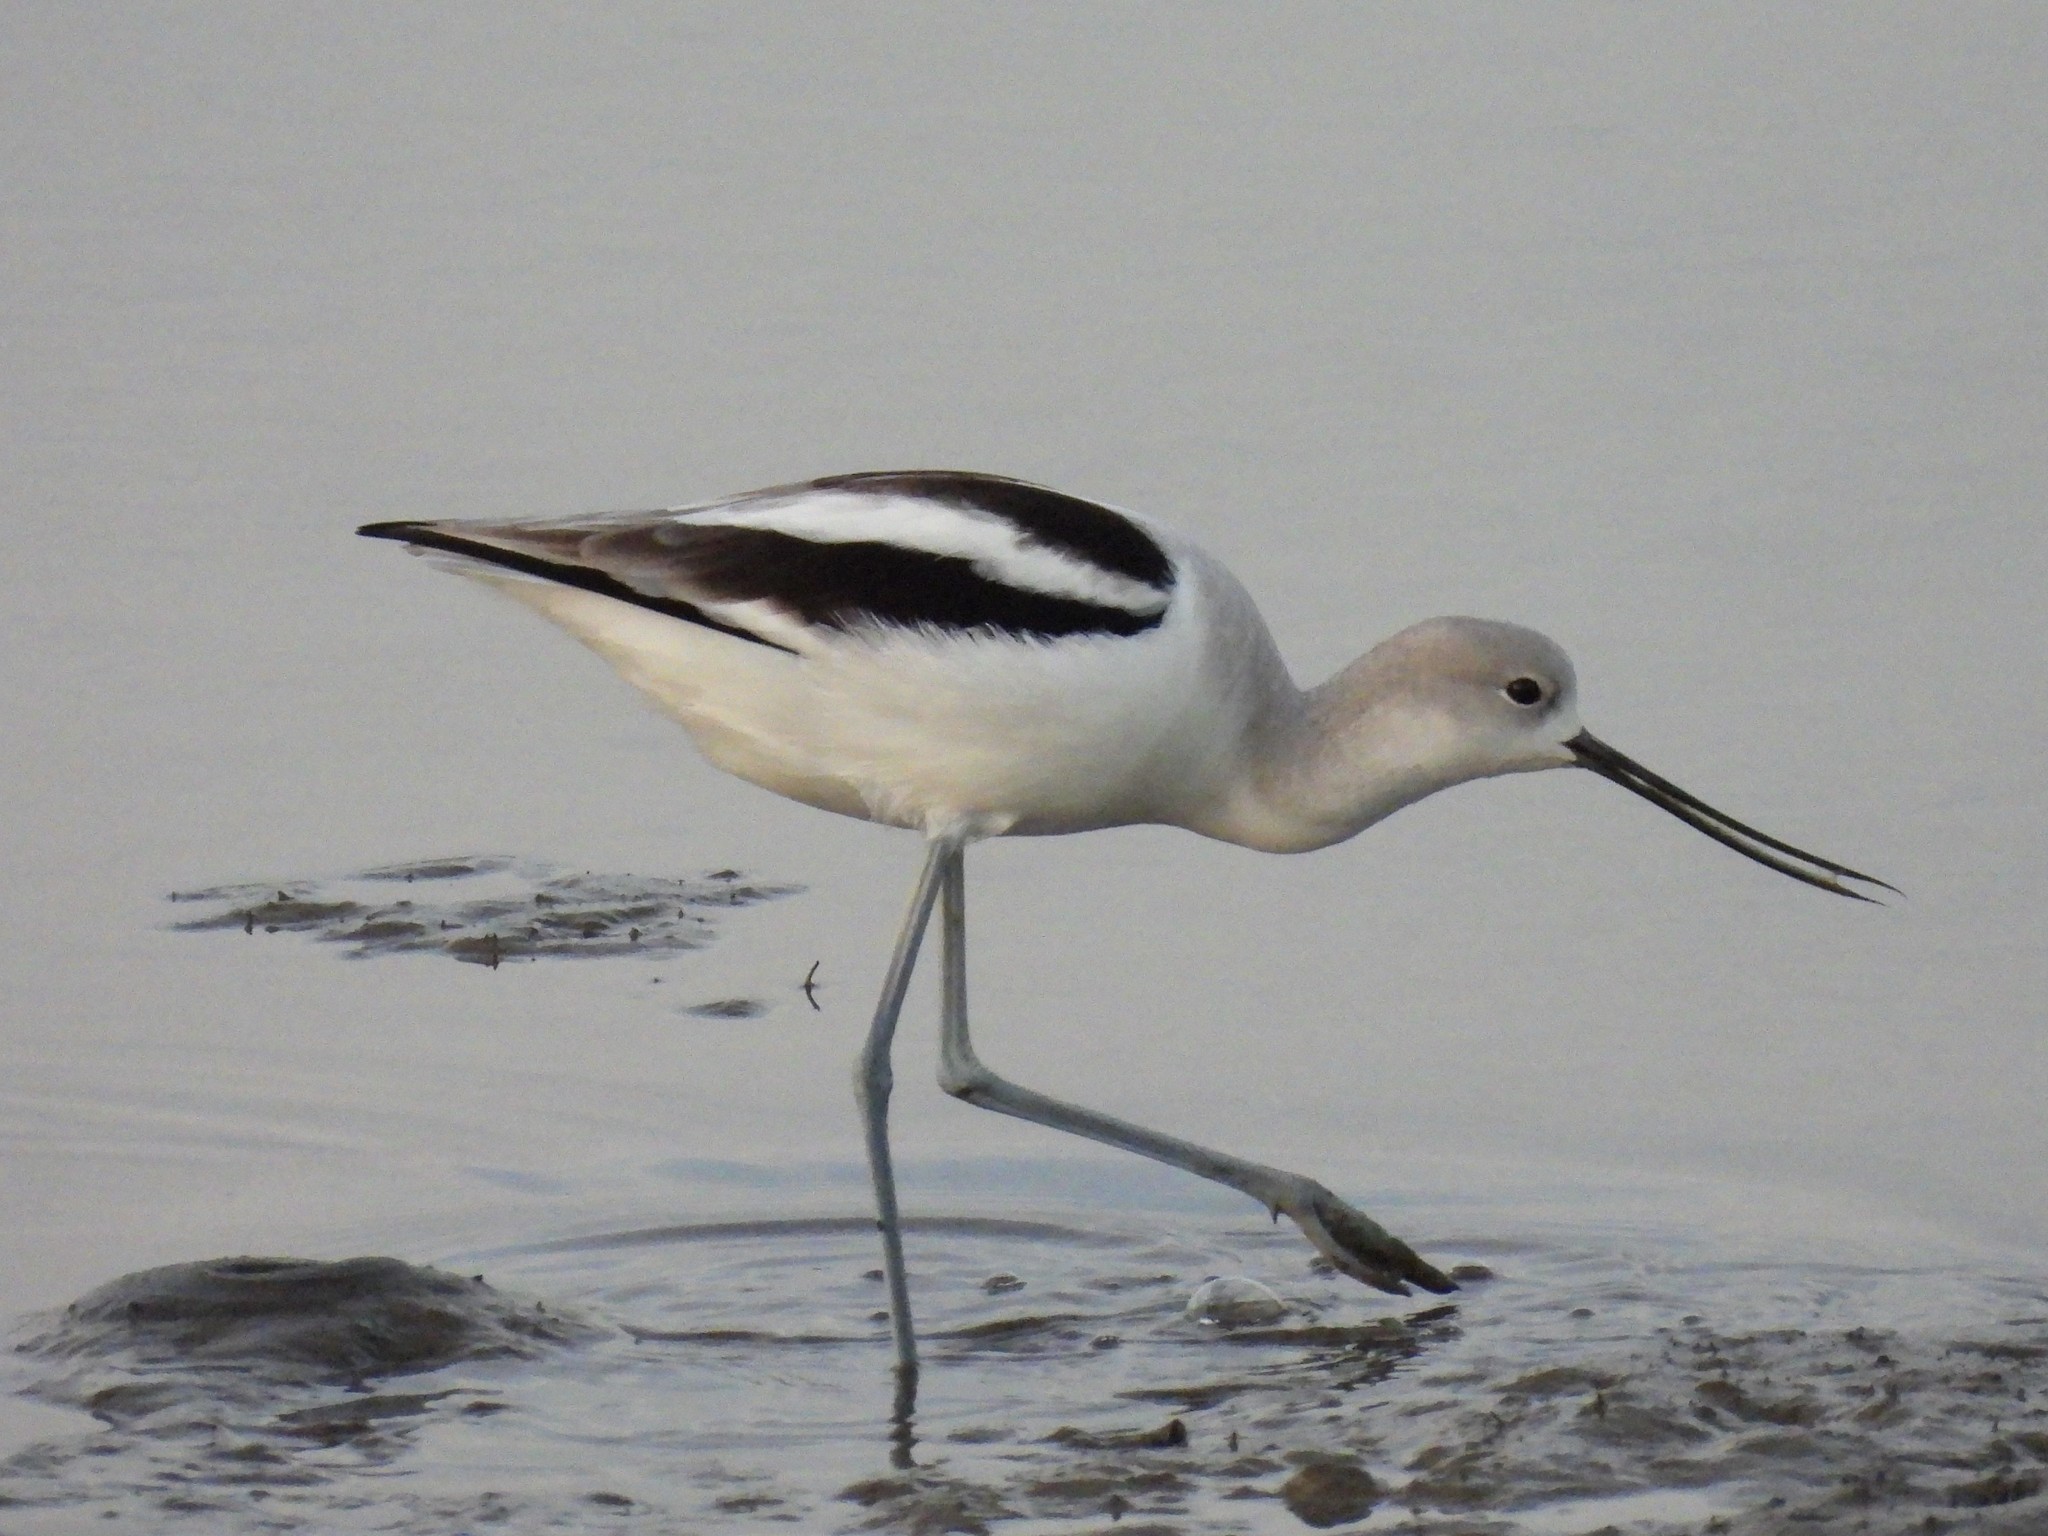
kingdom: Animalia
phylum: Chordata
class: Aves
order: Charadriiformes
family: Recurvirostridae
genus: Recurvirostra
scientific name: Recurvirostra americana
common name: American avocet
